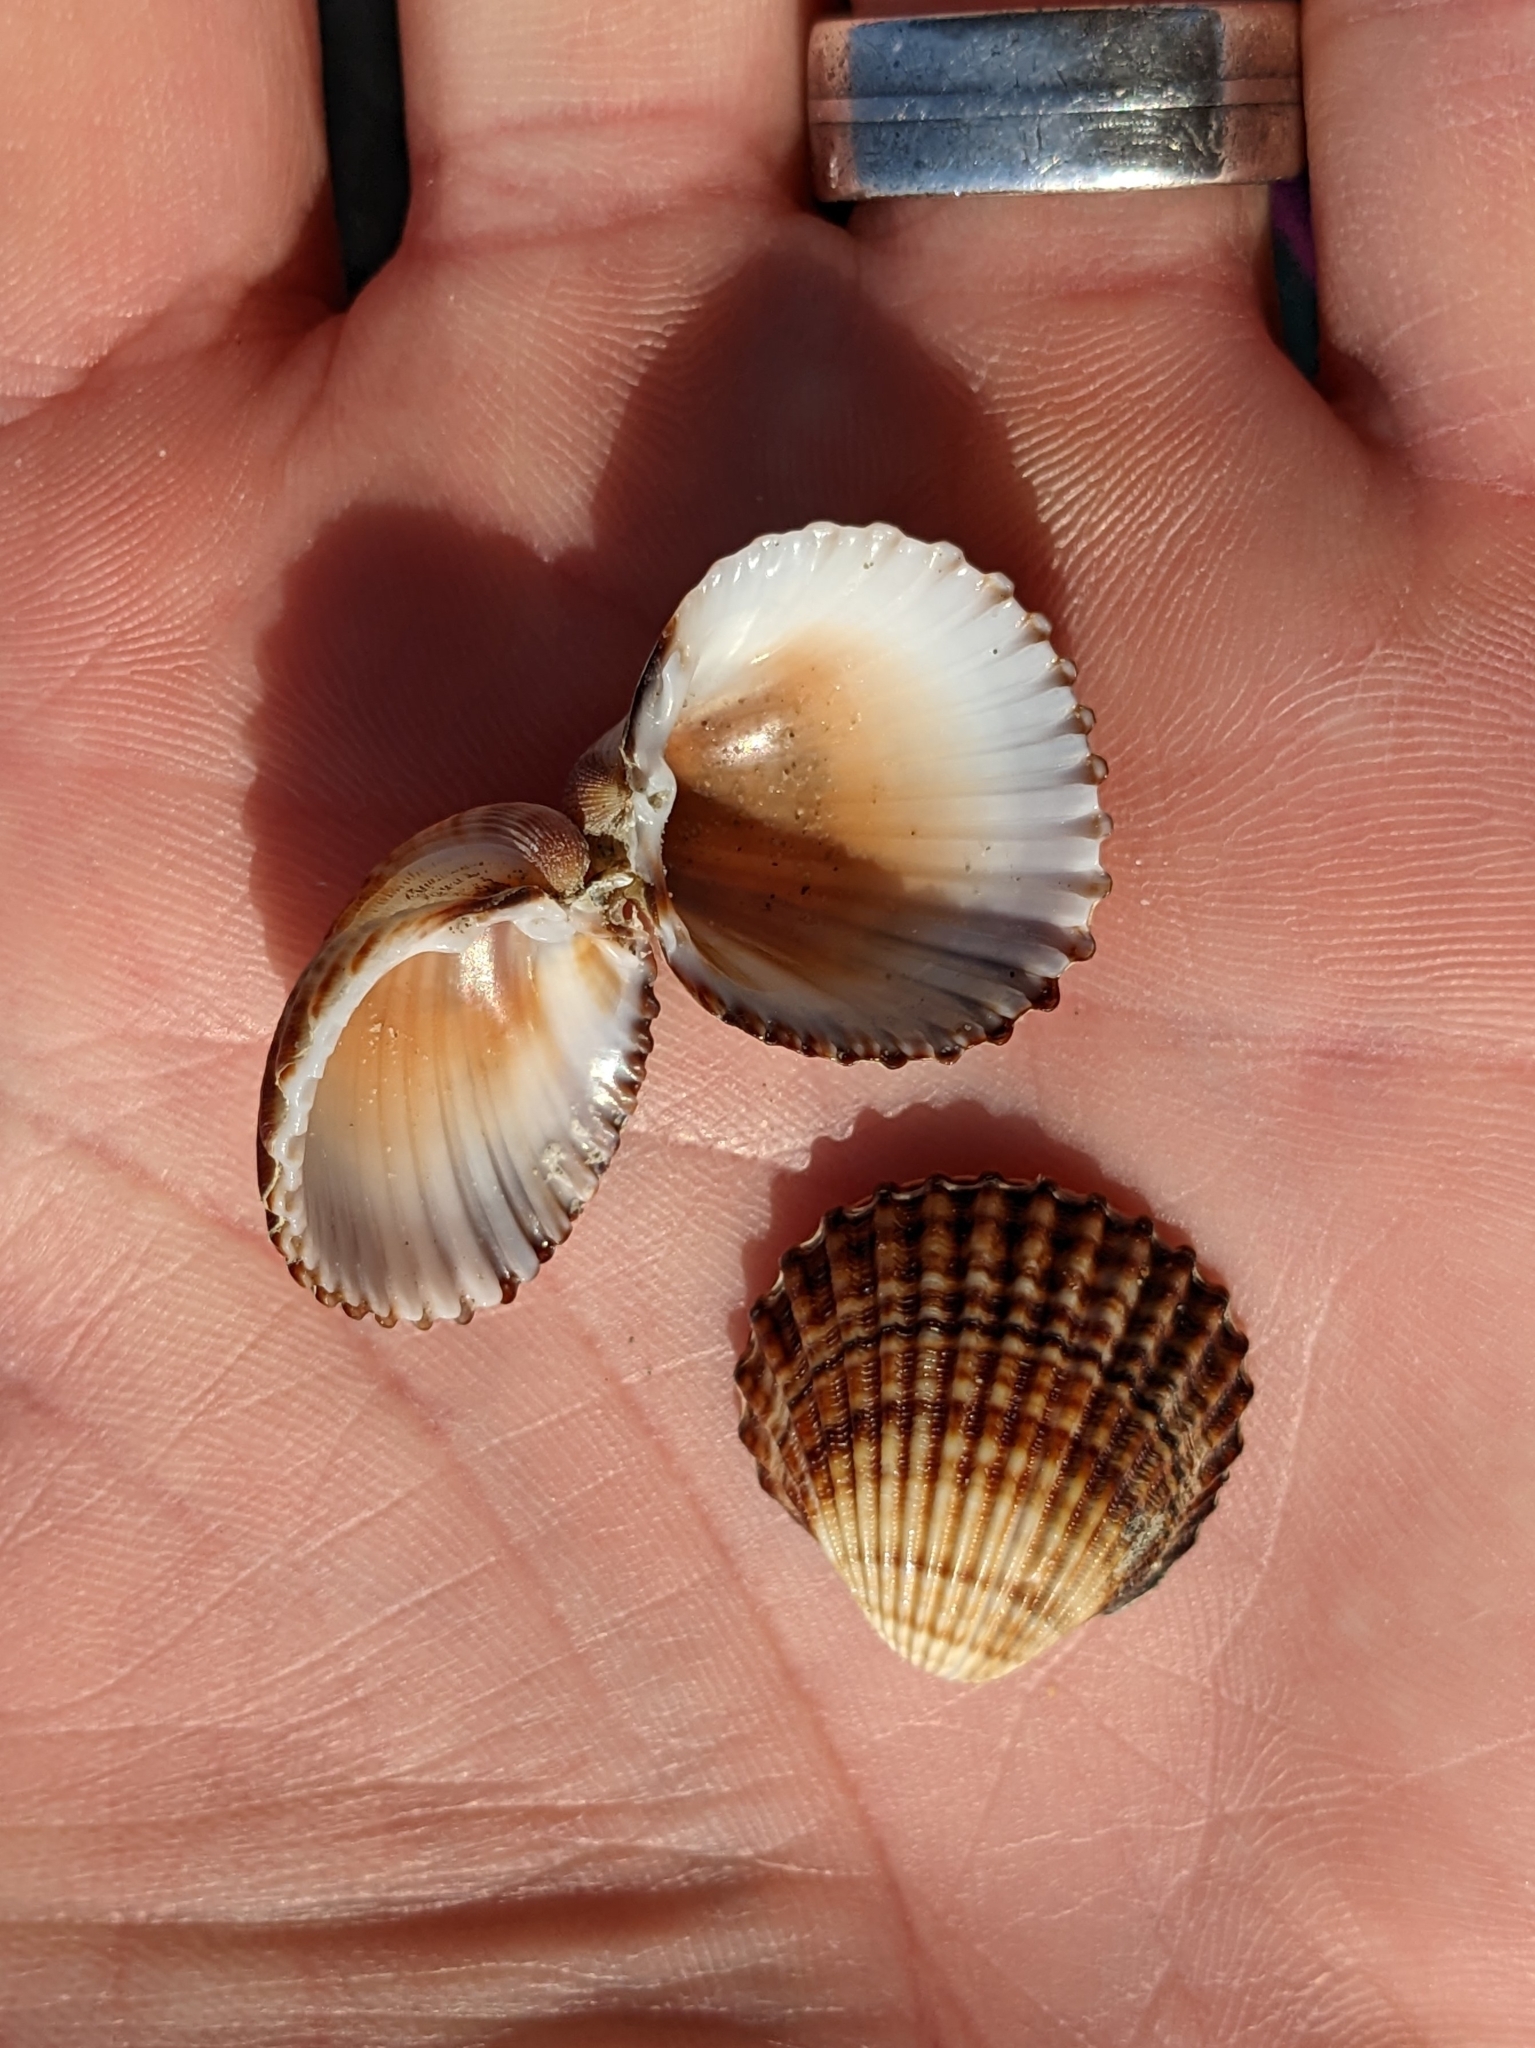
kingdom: Animalia
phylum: Mollusca
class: Bivalvia
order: Cardiida
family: Cardiidae
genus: Acanthocardia
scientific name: Acanthocardia tuberculata
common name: Rough cockle
